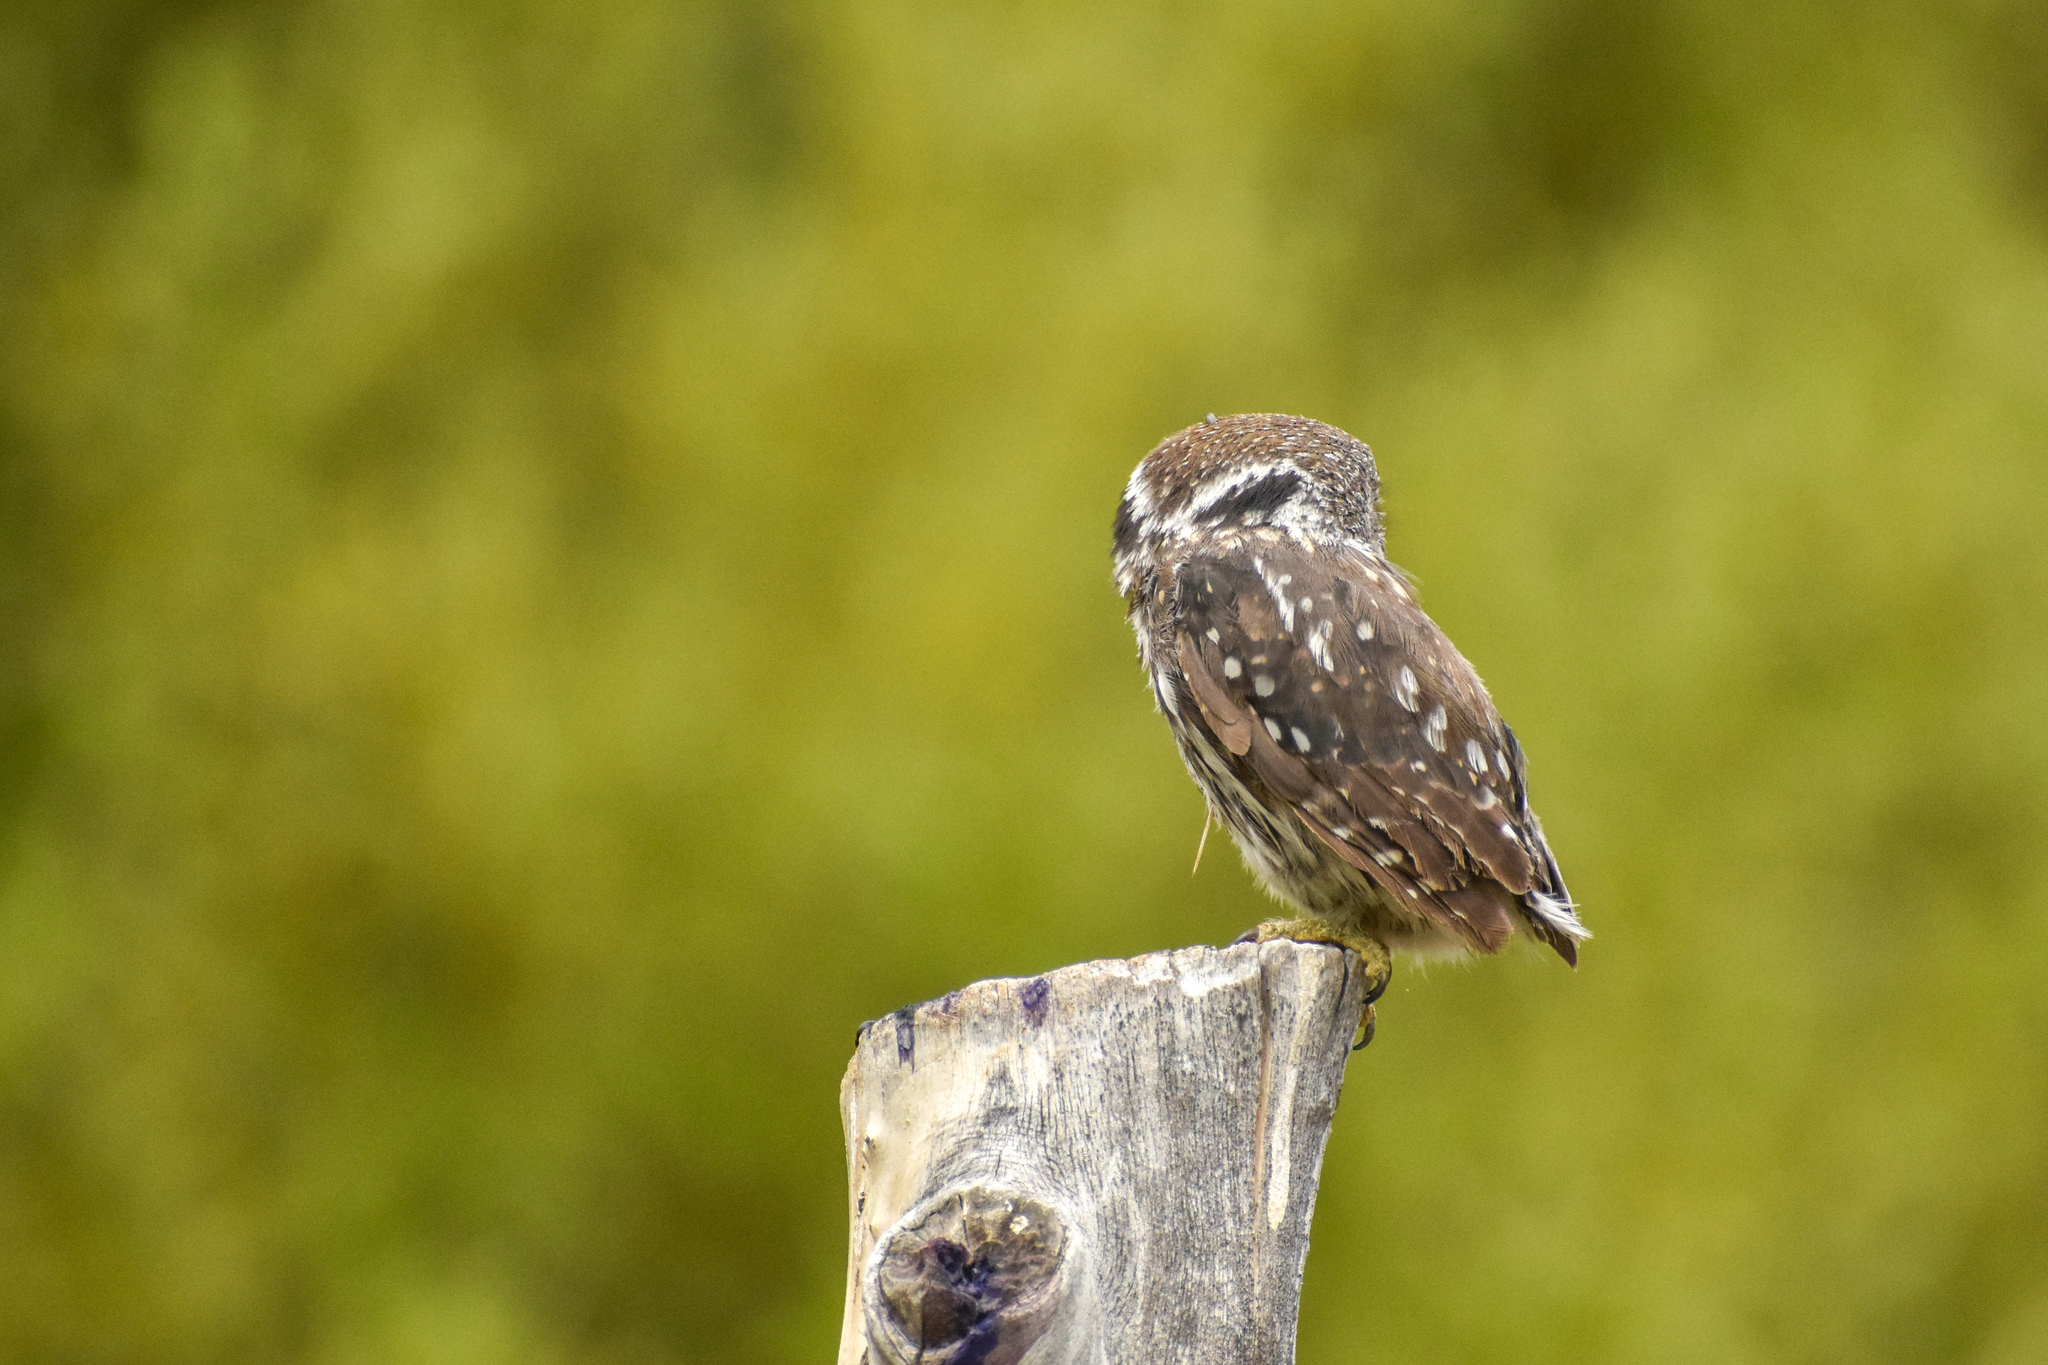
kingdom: Animalia
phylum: Chordata
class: Aves
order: Strigiformes
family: Strigidae
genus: Glaucidium
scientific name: Glaucidium nana
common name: Austral pygmy-owl
